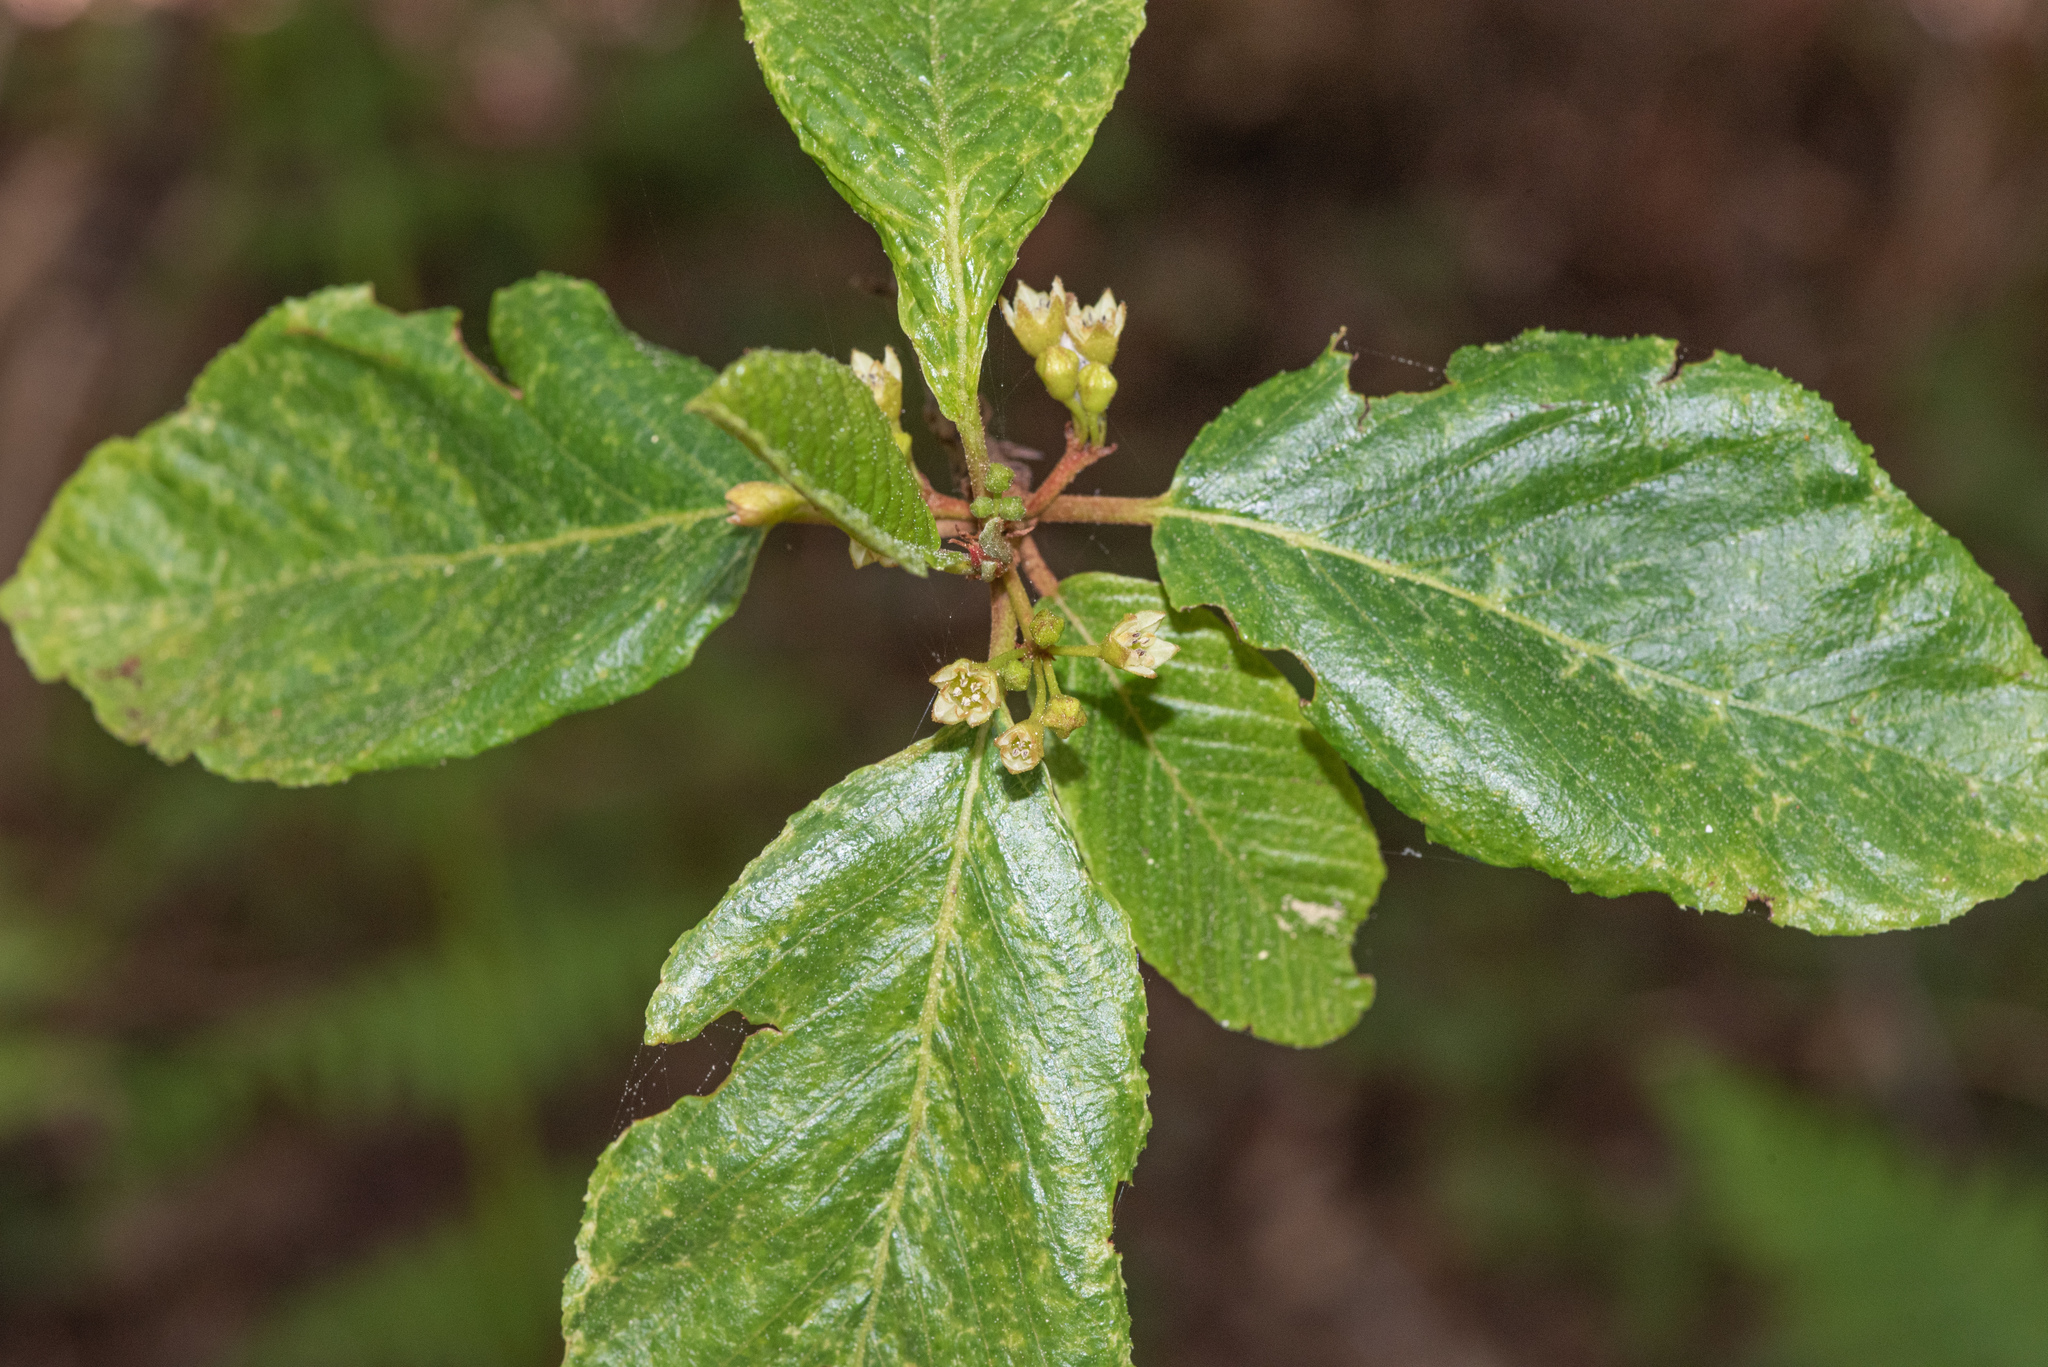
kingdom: Plantae
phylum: Tracheophyta
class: Magnoliopsida
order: Rosales
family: Rhamnaceae
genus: Frangula
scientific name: Frangula purshiana
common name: Cascara buckthorn
